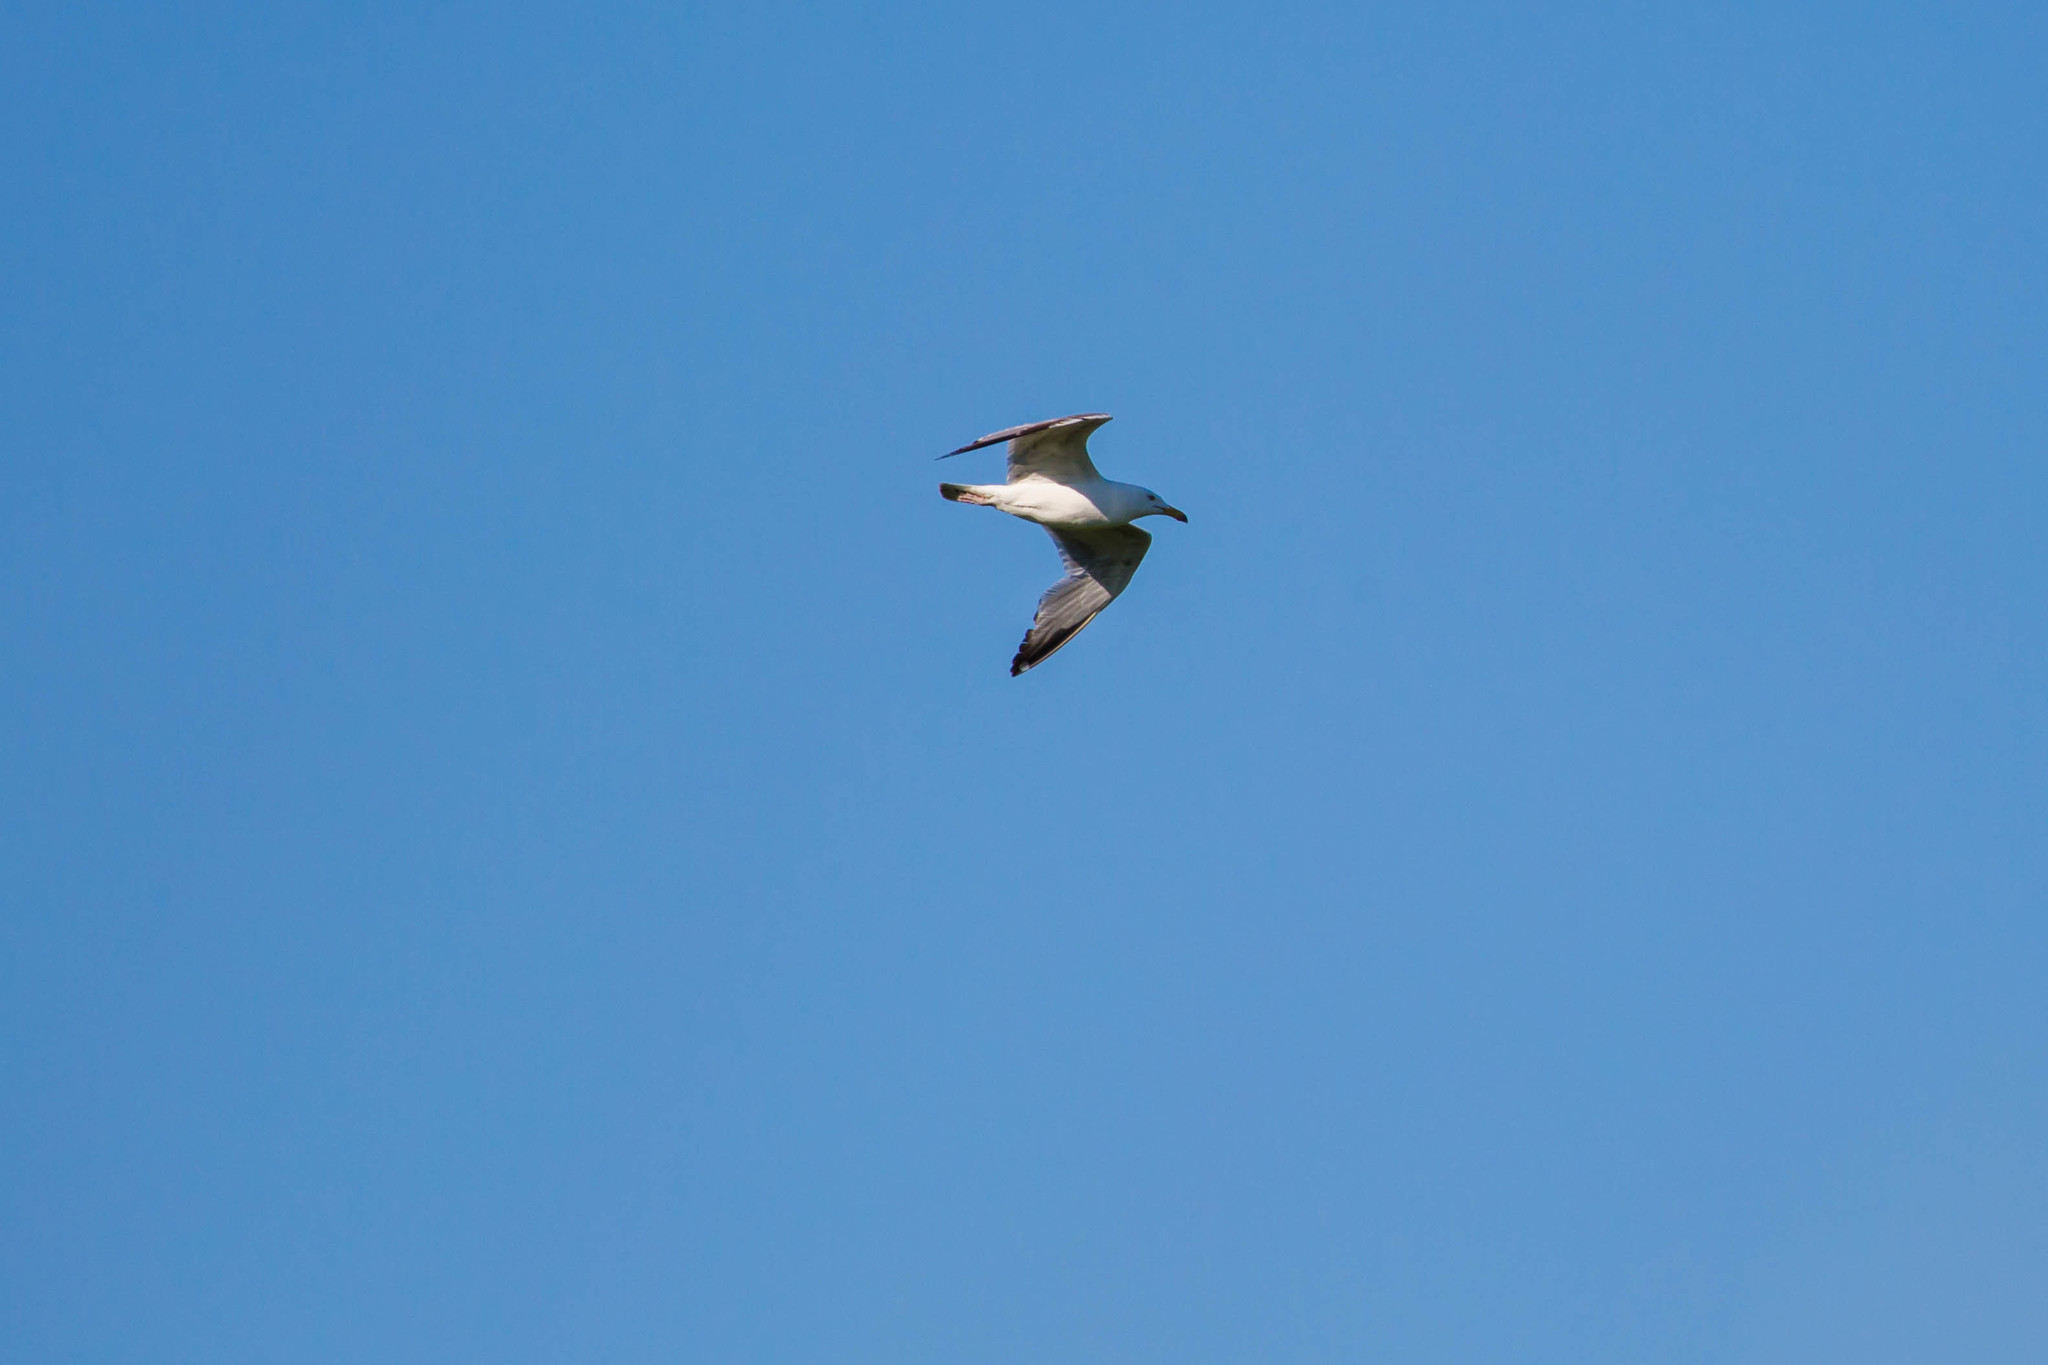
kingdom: Animalia
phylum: Chordata
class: Aves
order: Charadriiformes
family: Laridae
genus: Larus
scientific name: Larus argentatus
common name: Herring gull
